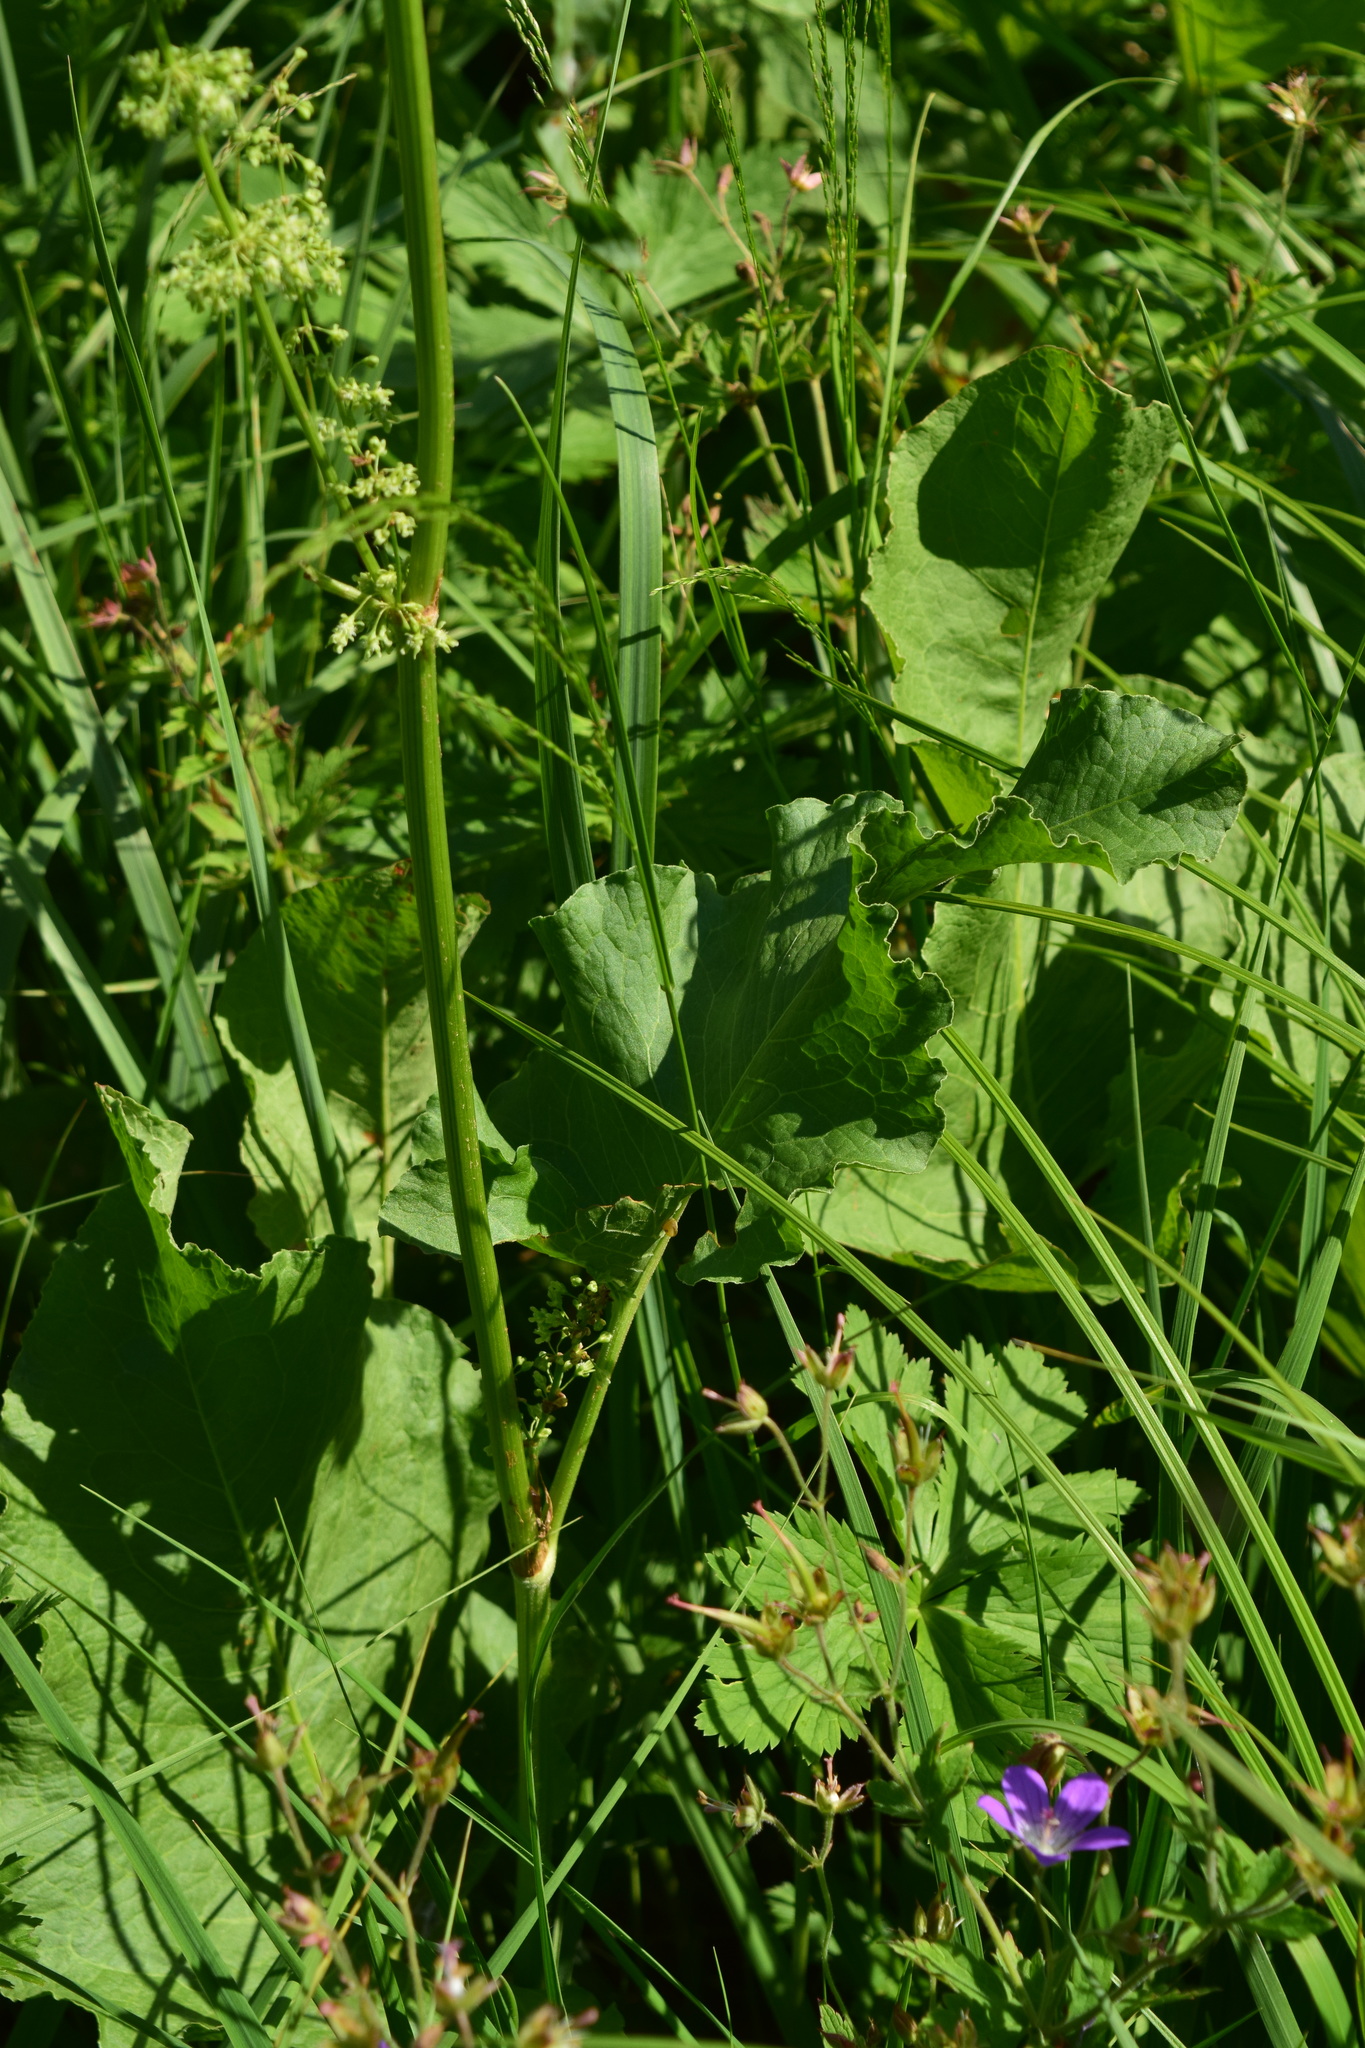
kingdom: Plantae
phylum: Tracheophyta
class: Magnoliopsida
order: Caryophyllales
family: Polygonaceae
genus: Rumex
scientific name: Rumex confertus
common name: Russian dock
